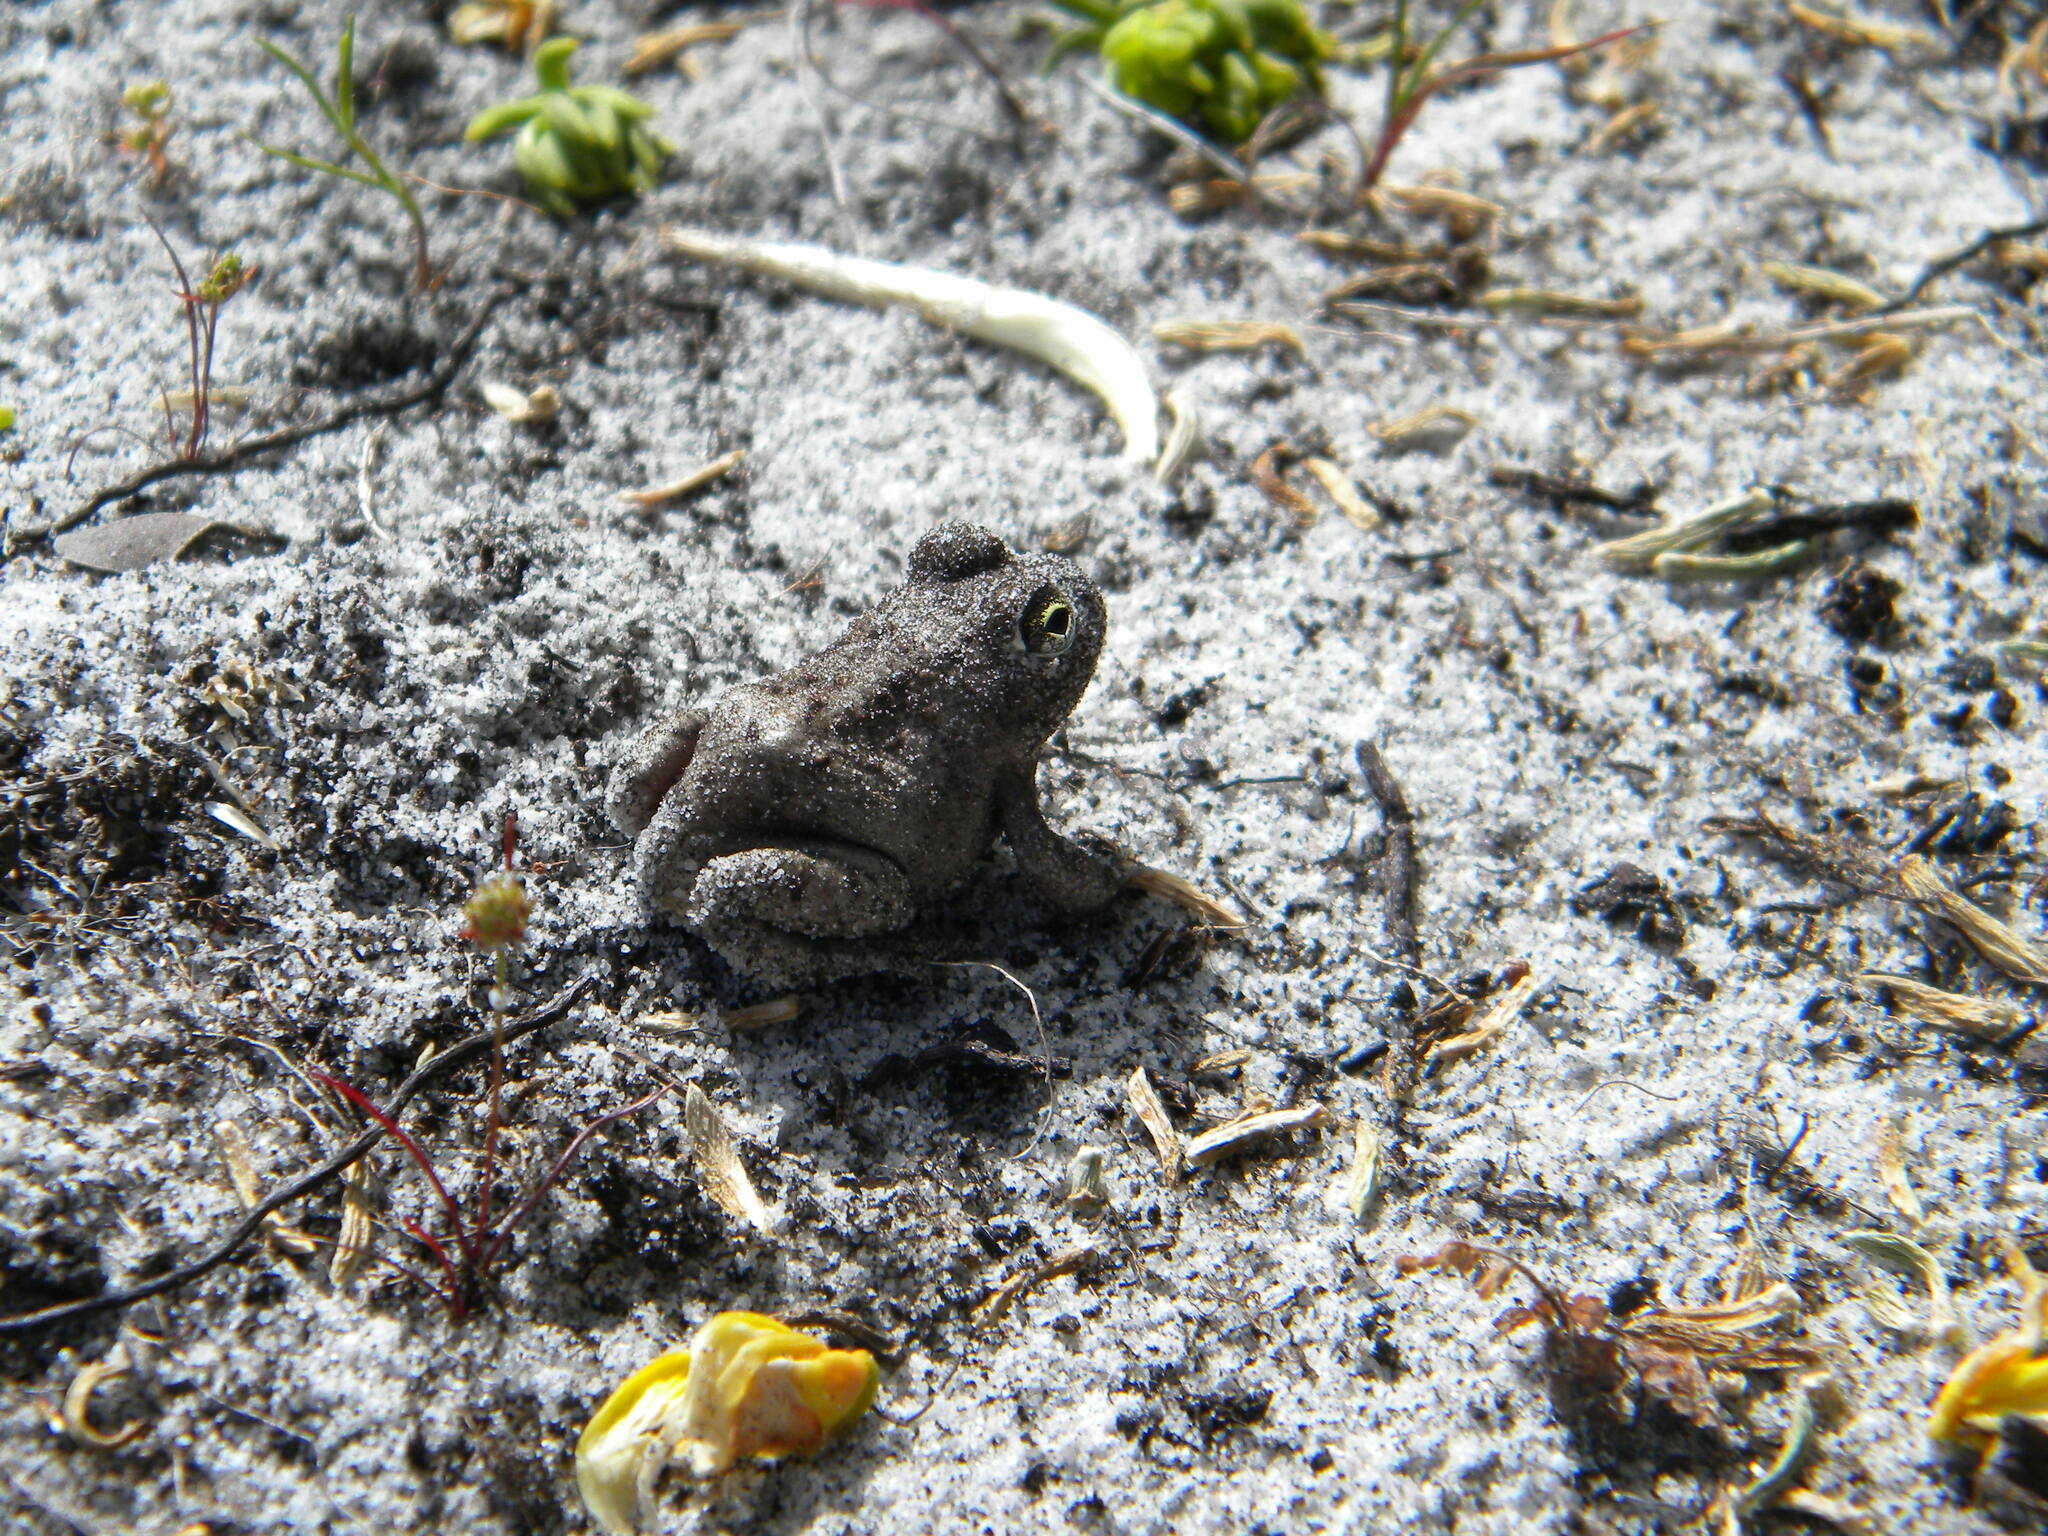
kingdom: Animalia
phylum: Chordata
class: Amphibia
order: Anura
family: Pyxicephalidae
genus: Tomopterna
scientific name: Tomopterna delalandii
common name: Delalande's burrowing bullfrog
